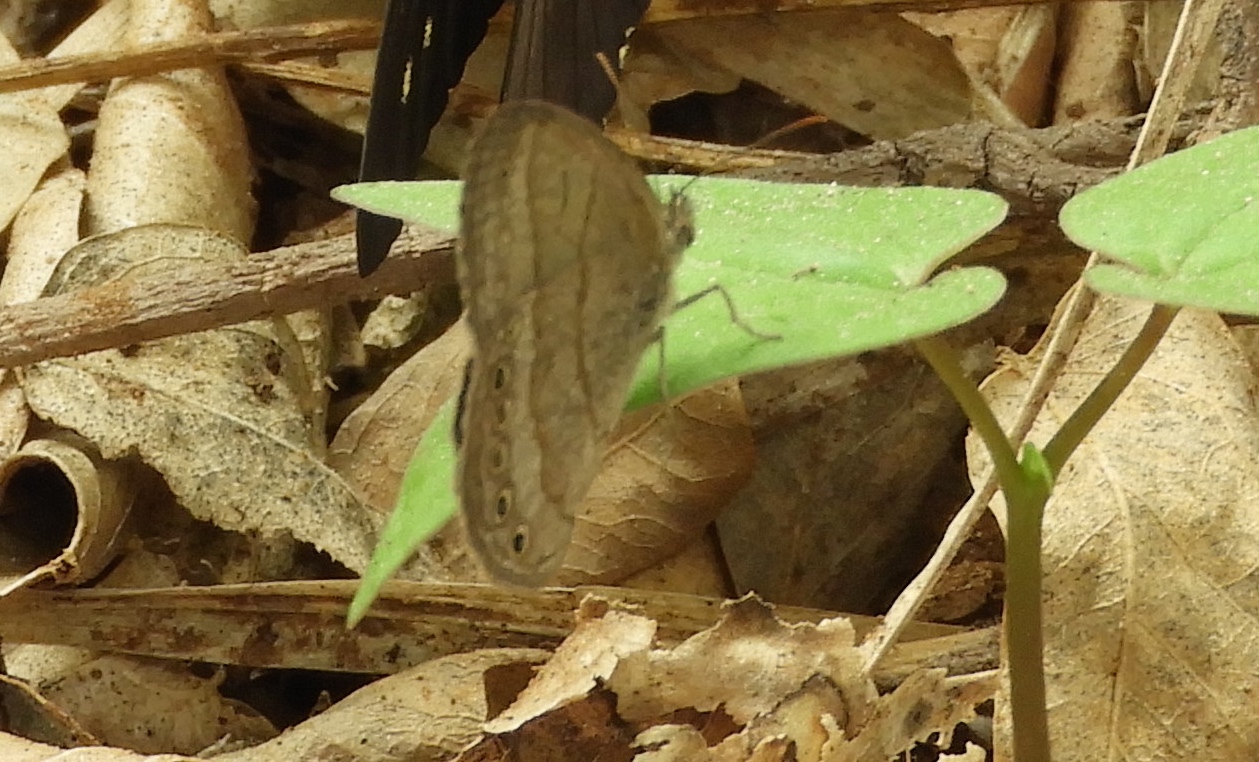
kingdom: Animalia
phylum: Arthropoda
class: Insecta
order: Lepidoptera
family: Nymphalidae
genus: Hermeuptychia
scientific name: Hermeuptychia hermes
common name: Hermes satyr
